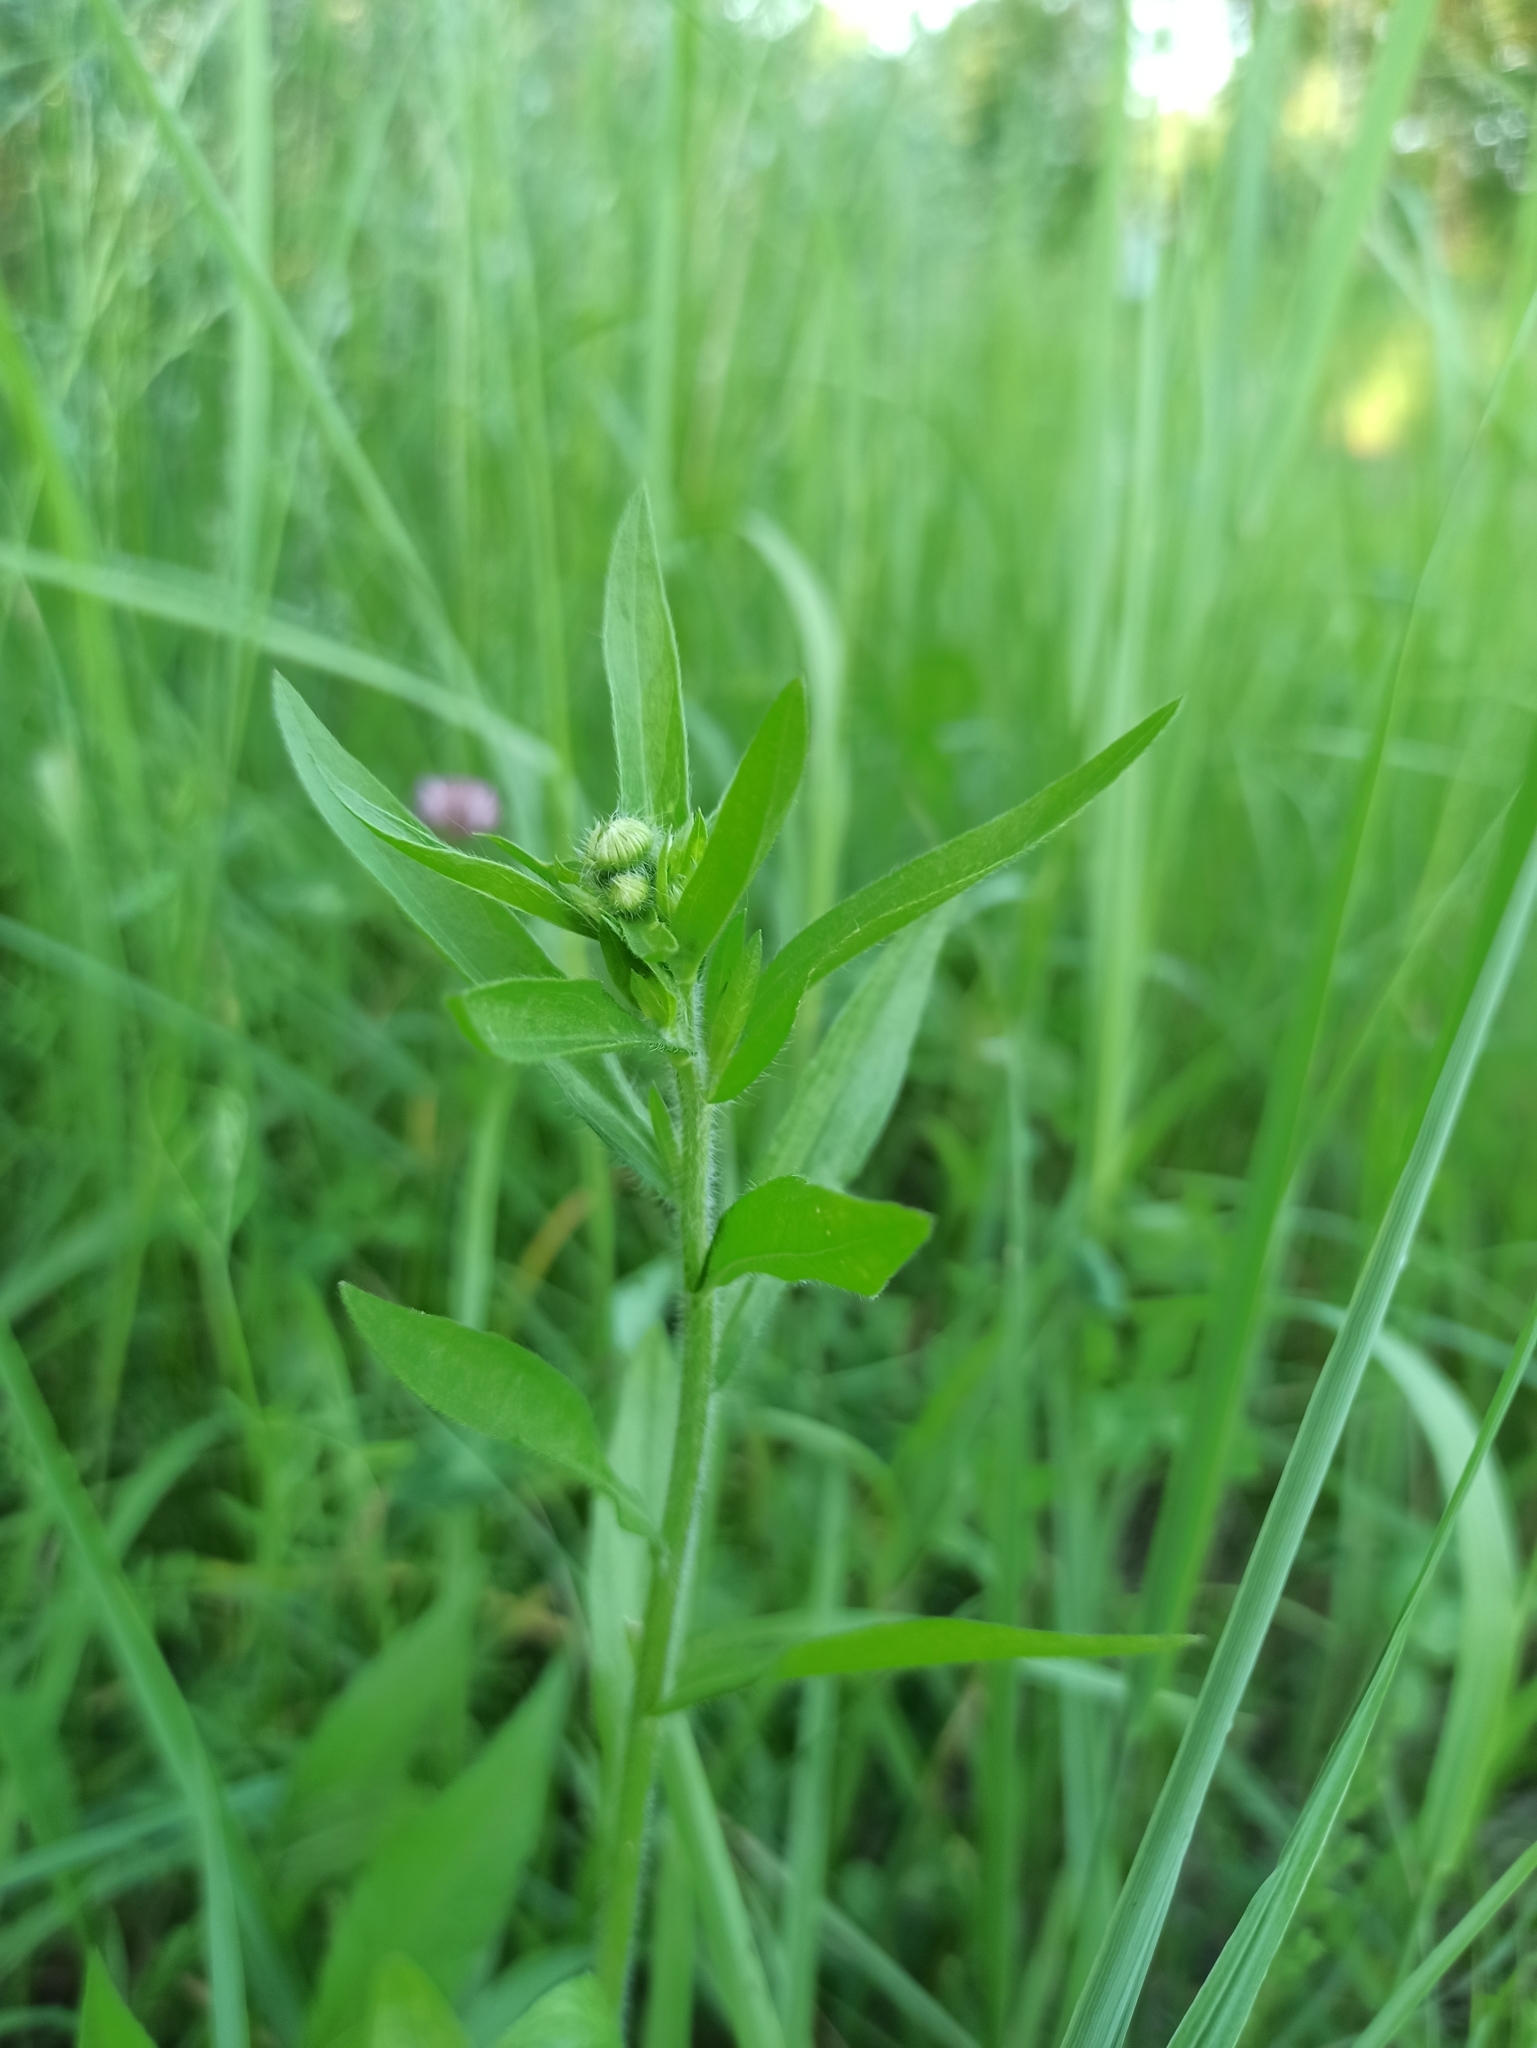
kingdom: Plantae
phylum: Tracheophyta
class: Magnoliopsida
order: Asterales
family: Asteraceae
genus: Erigeron
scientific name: Erigeron annuus
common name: Tall fleabane
